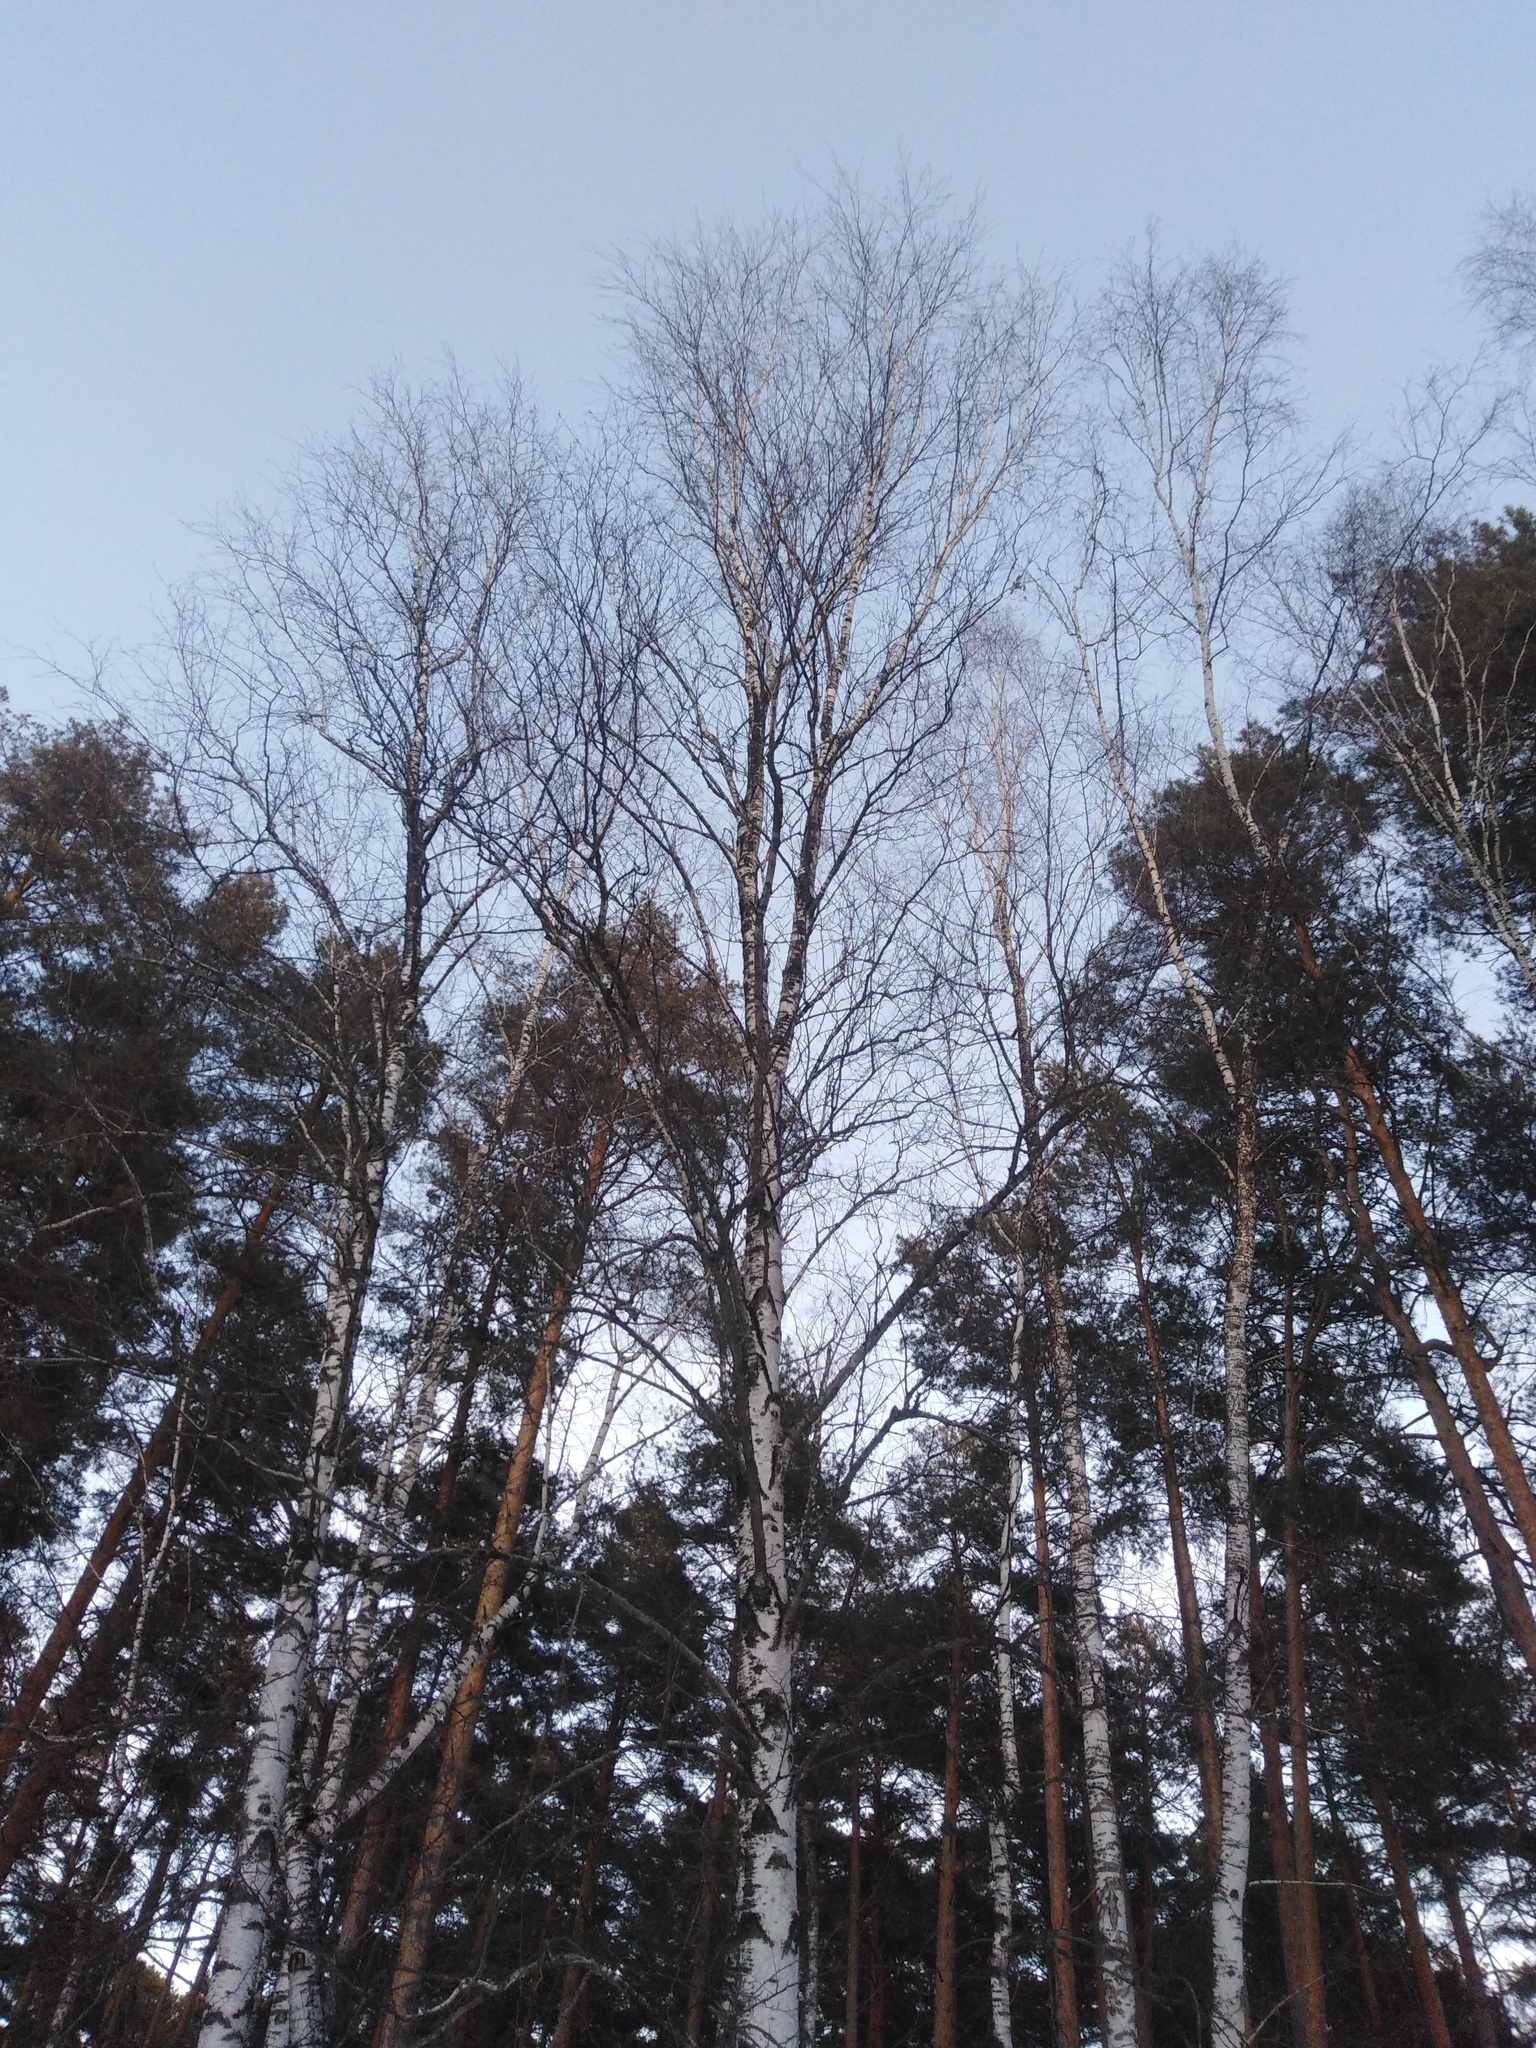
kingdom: Plantae
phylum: Tracheophyta
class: Magnoliopsida
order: Fagales
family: Betulaceae
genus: Betula
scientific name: Betula pubescens
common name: Downy birch
